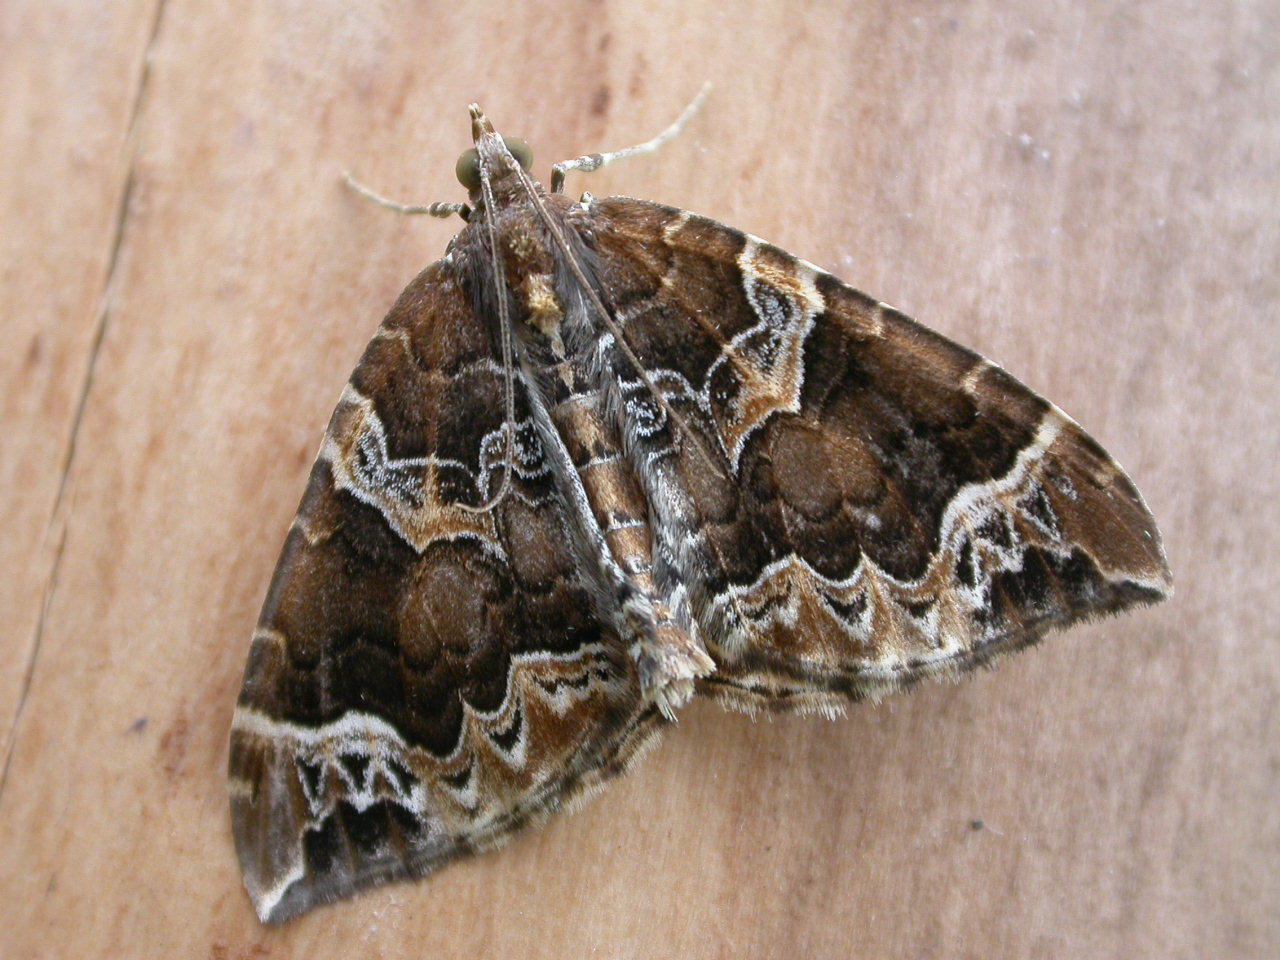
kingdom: Animalia
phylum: Arthropoda
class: Insecta
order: Lepidoptera
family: Geometridae
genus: Eulithis
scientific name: Eulithis prunata
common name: Phoenix
